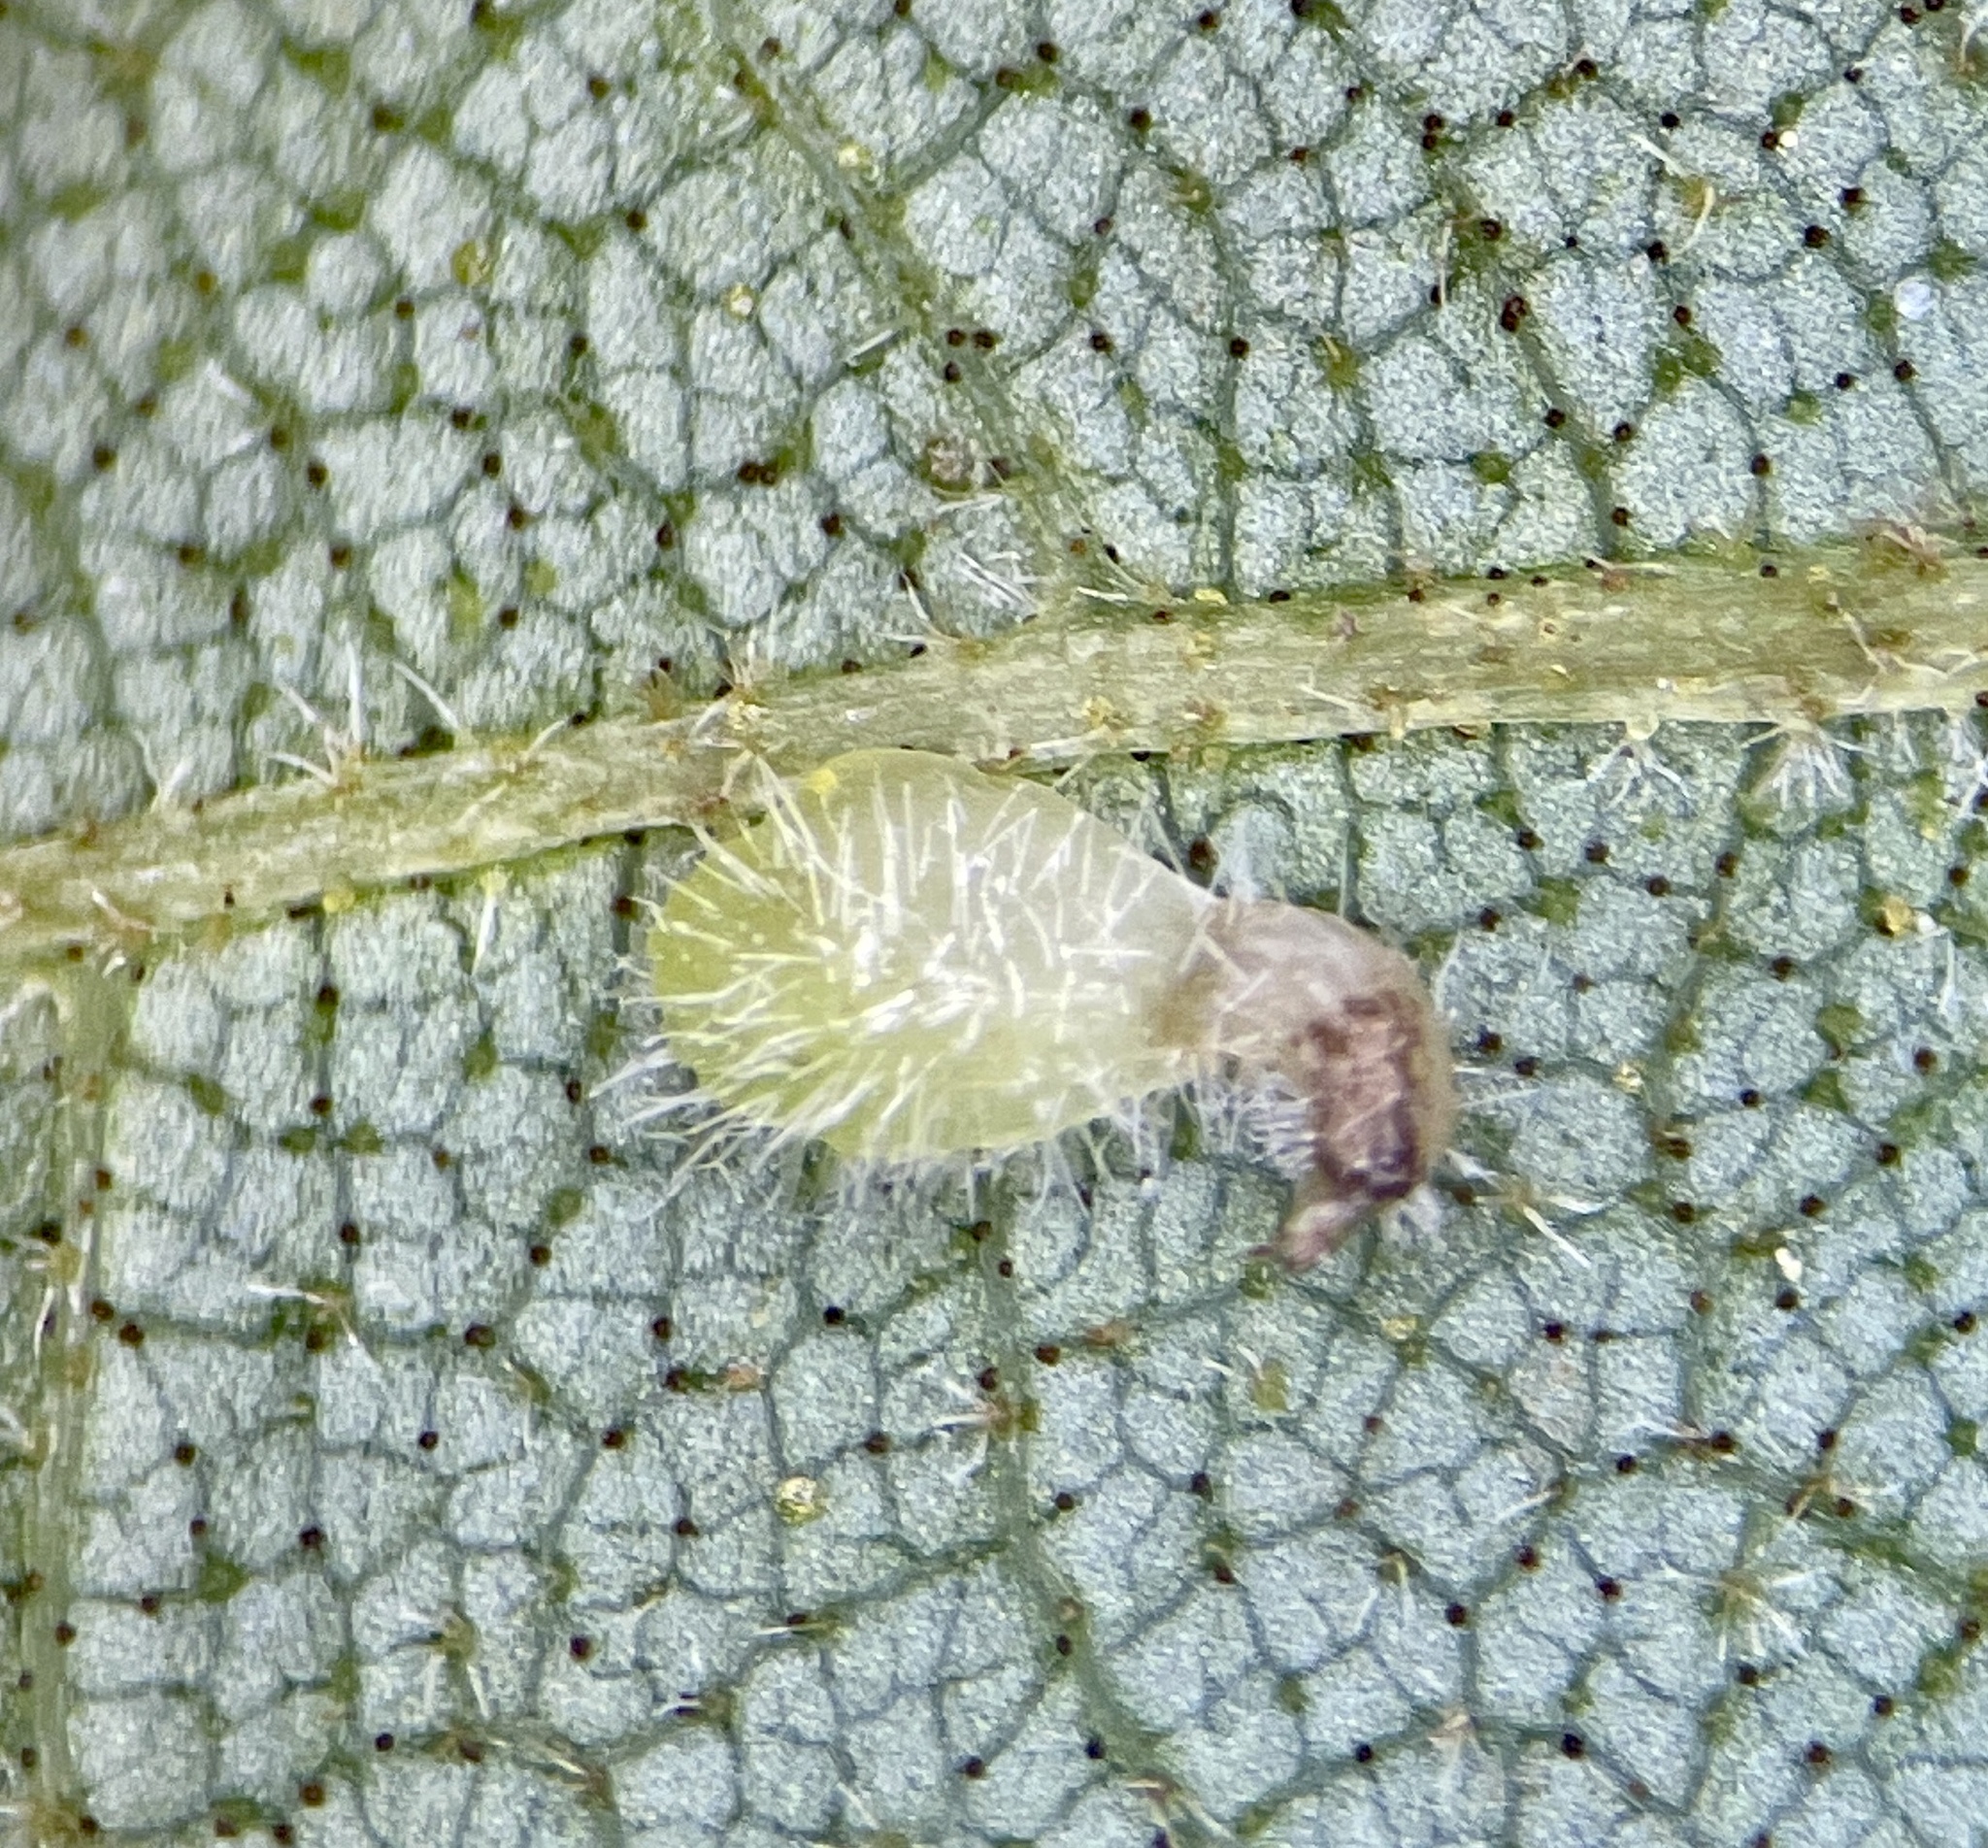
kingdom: Animalia
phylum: Arthropoda
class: Insecta
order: Diptera
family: Cecidomyiidae
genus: Caryomyia
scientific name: Caryomyia eumaris
